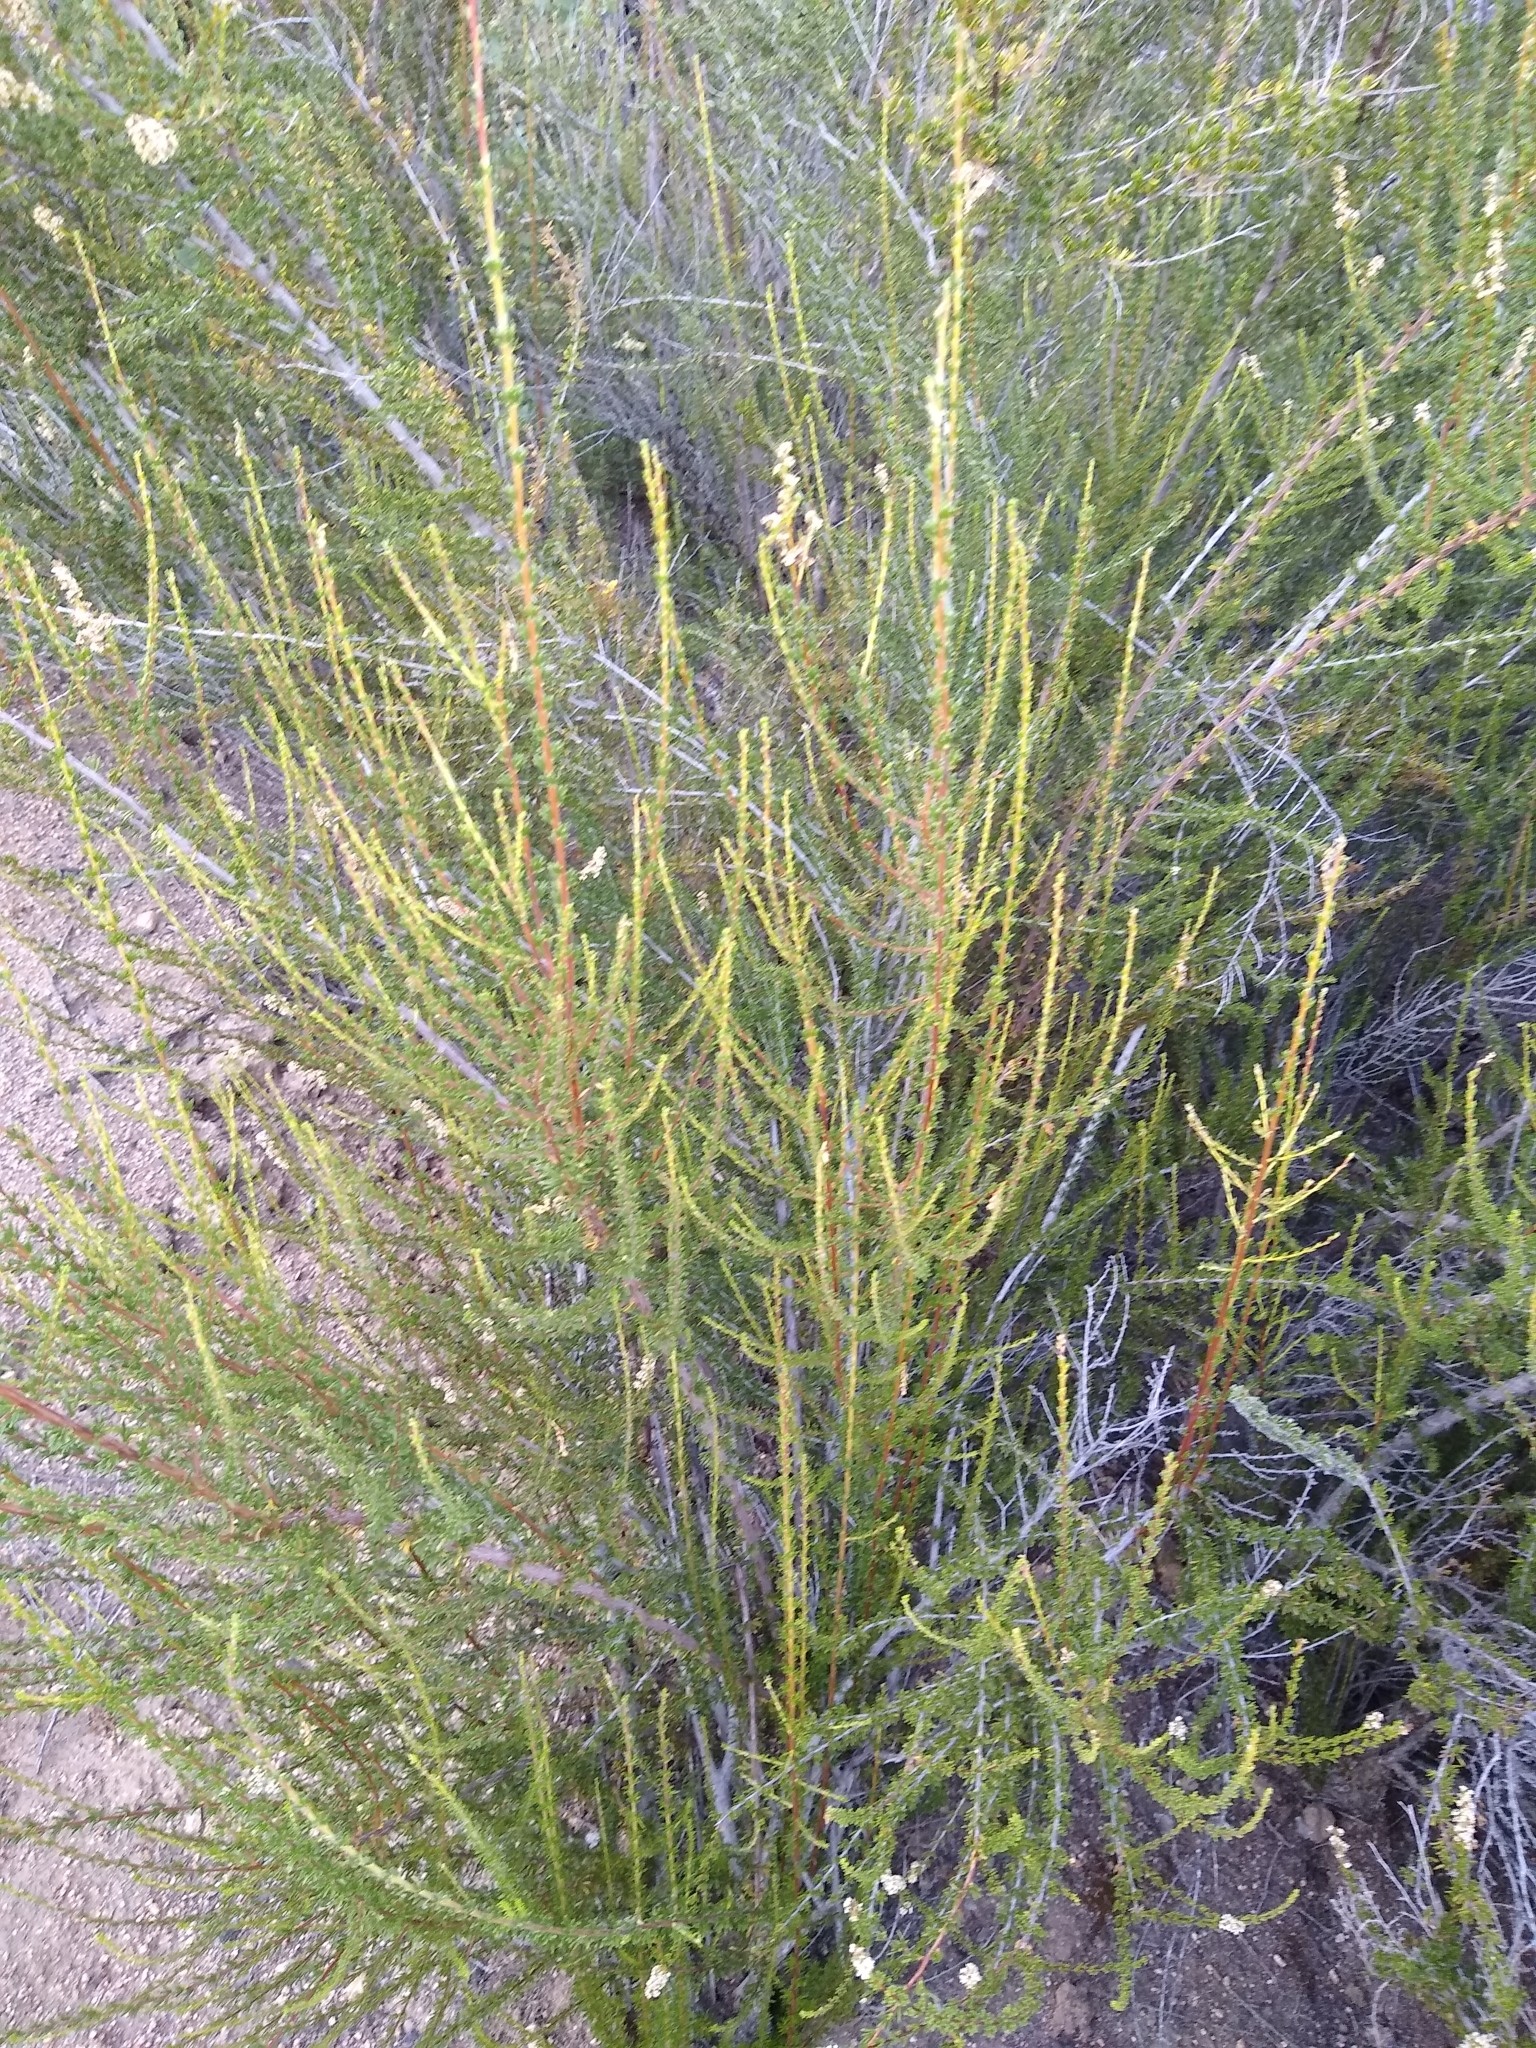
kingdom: Plantae
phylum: Tracheophyta
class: Magnoliopsida
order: Rosales
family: Rosaceae
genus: Adenostoma
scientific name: Adenostoma fasciculatum
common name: Chamise
